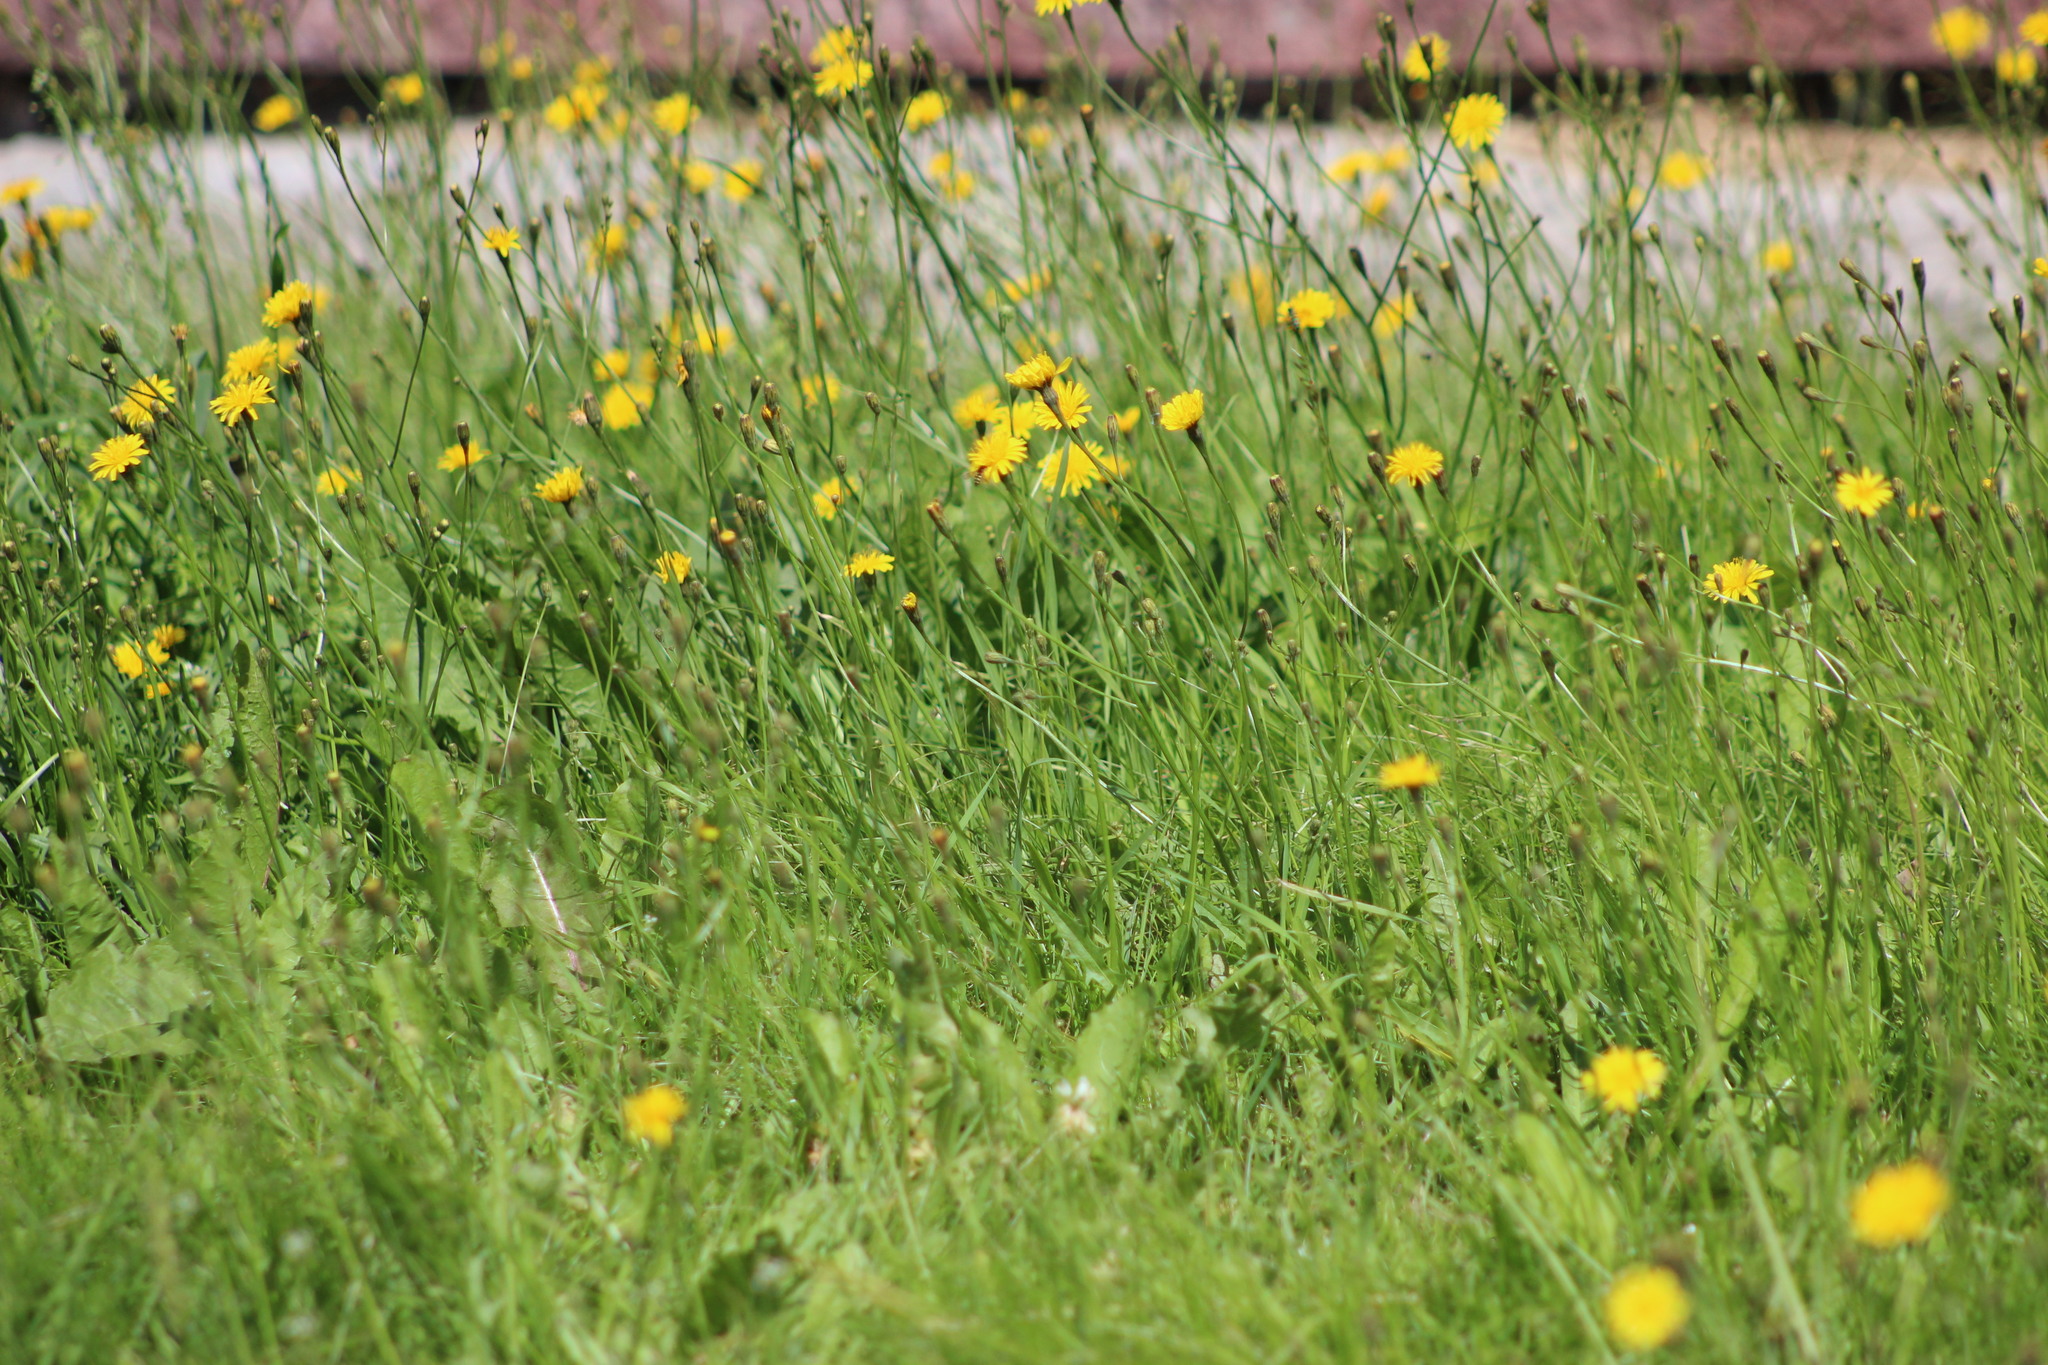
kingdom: Plantae
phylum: Tracheophyta
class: Magnoliopsida
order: Asterales
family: Asteraceae
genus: Scorzoneroides
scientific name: Scorzoneroides autumnalis
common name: Autumn hawkbit
